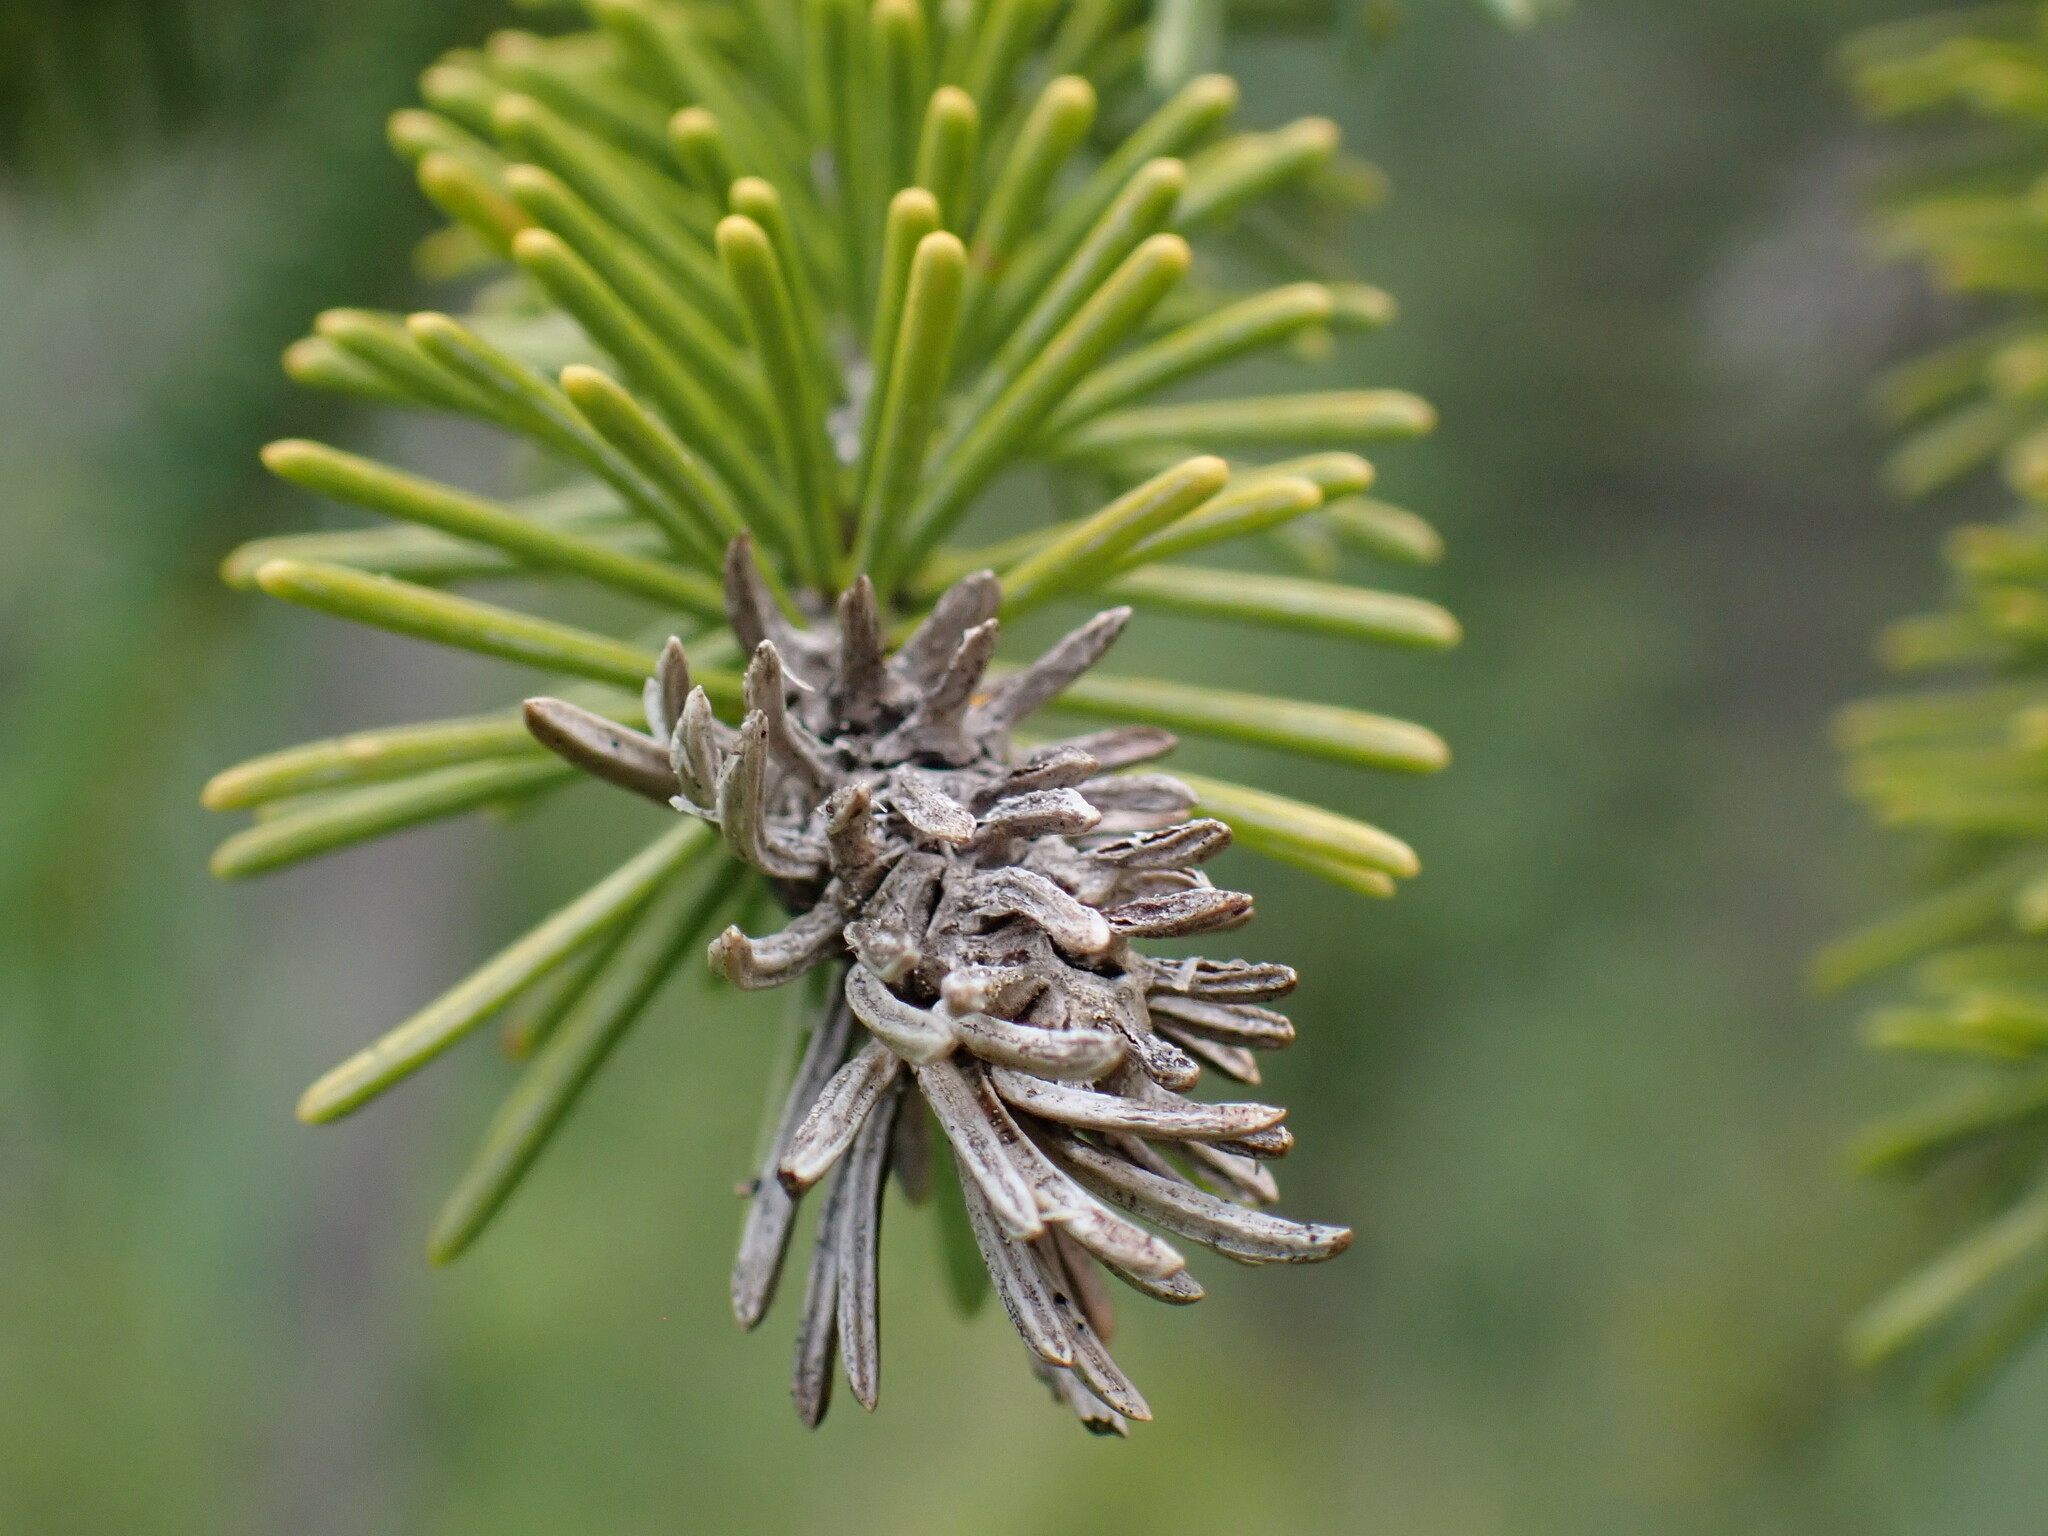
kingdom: Animalia
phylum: Arthropoda
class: Insecta
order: Hemiptera
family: Adelgidae
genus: Adelges
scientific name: Adelges cooleyi
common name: Cooley spruce gall adelgid
